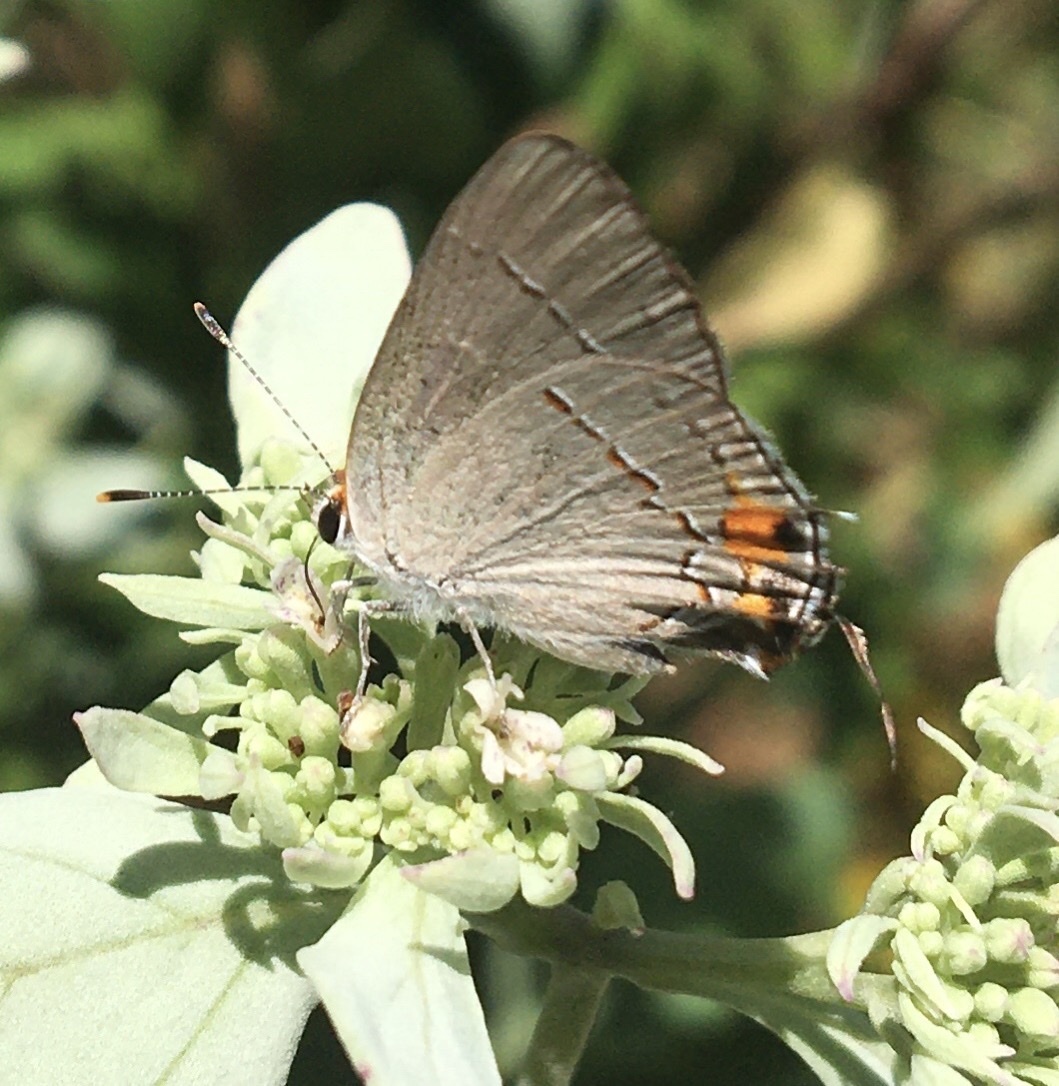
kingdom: Animalia
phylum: Arthropoda
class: Insecta
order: Lepidoptera
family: Lycaenidae
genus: Strymon
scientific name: Strymon melinus
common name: Gray hairstreak
